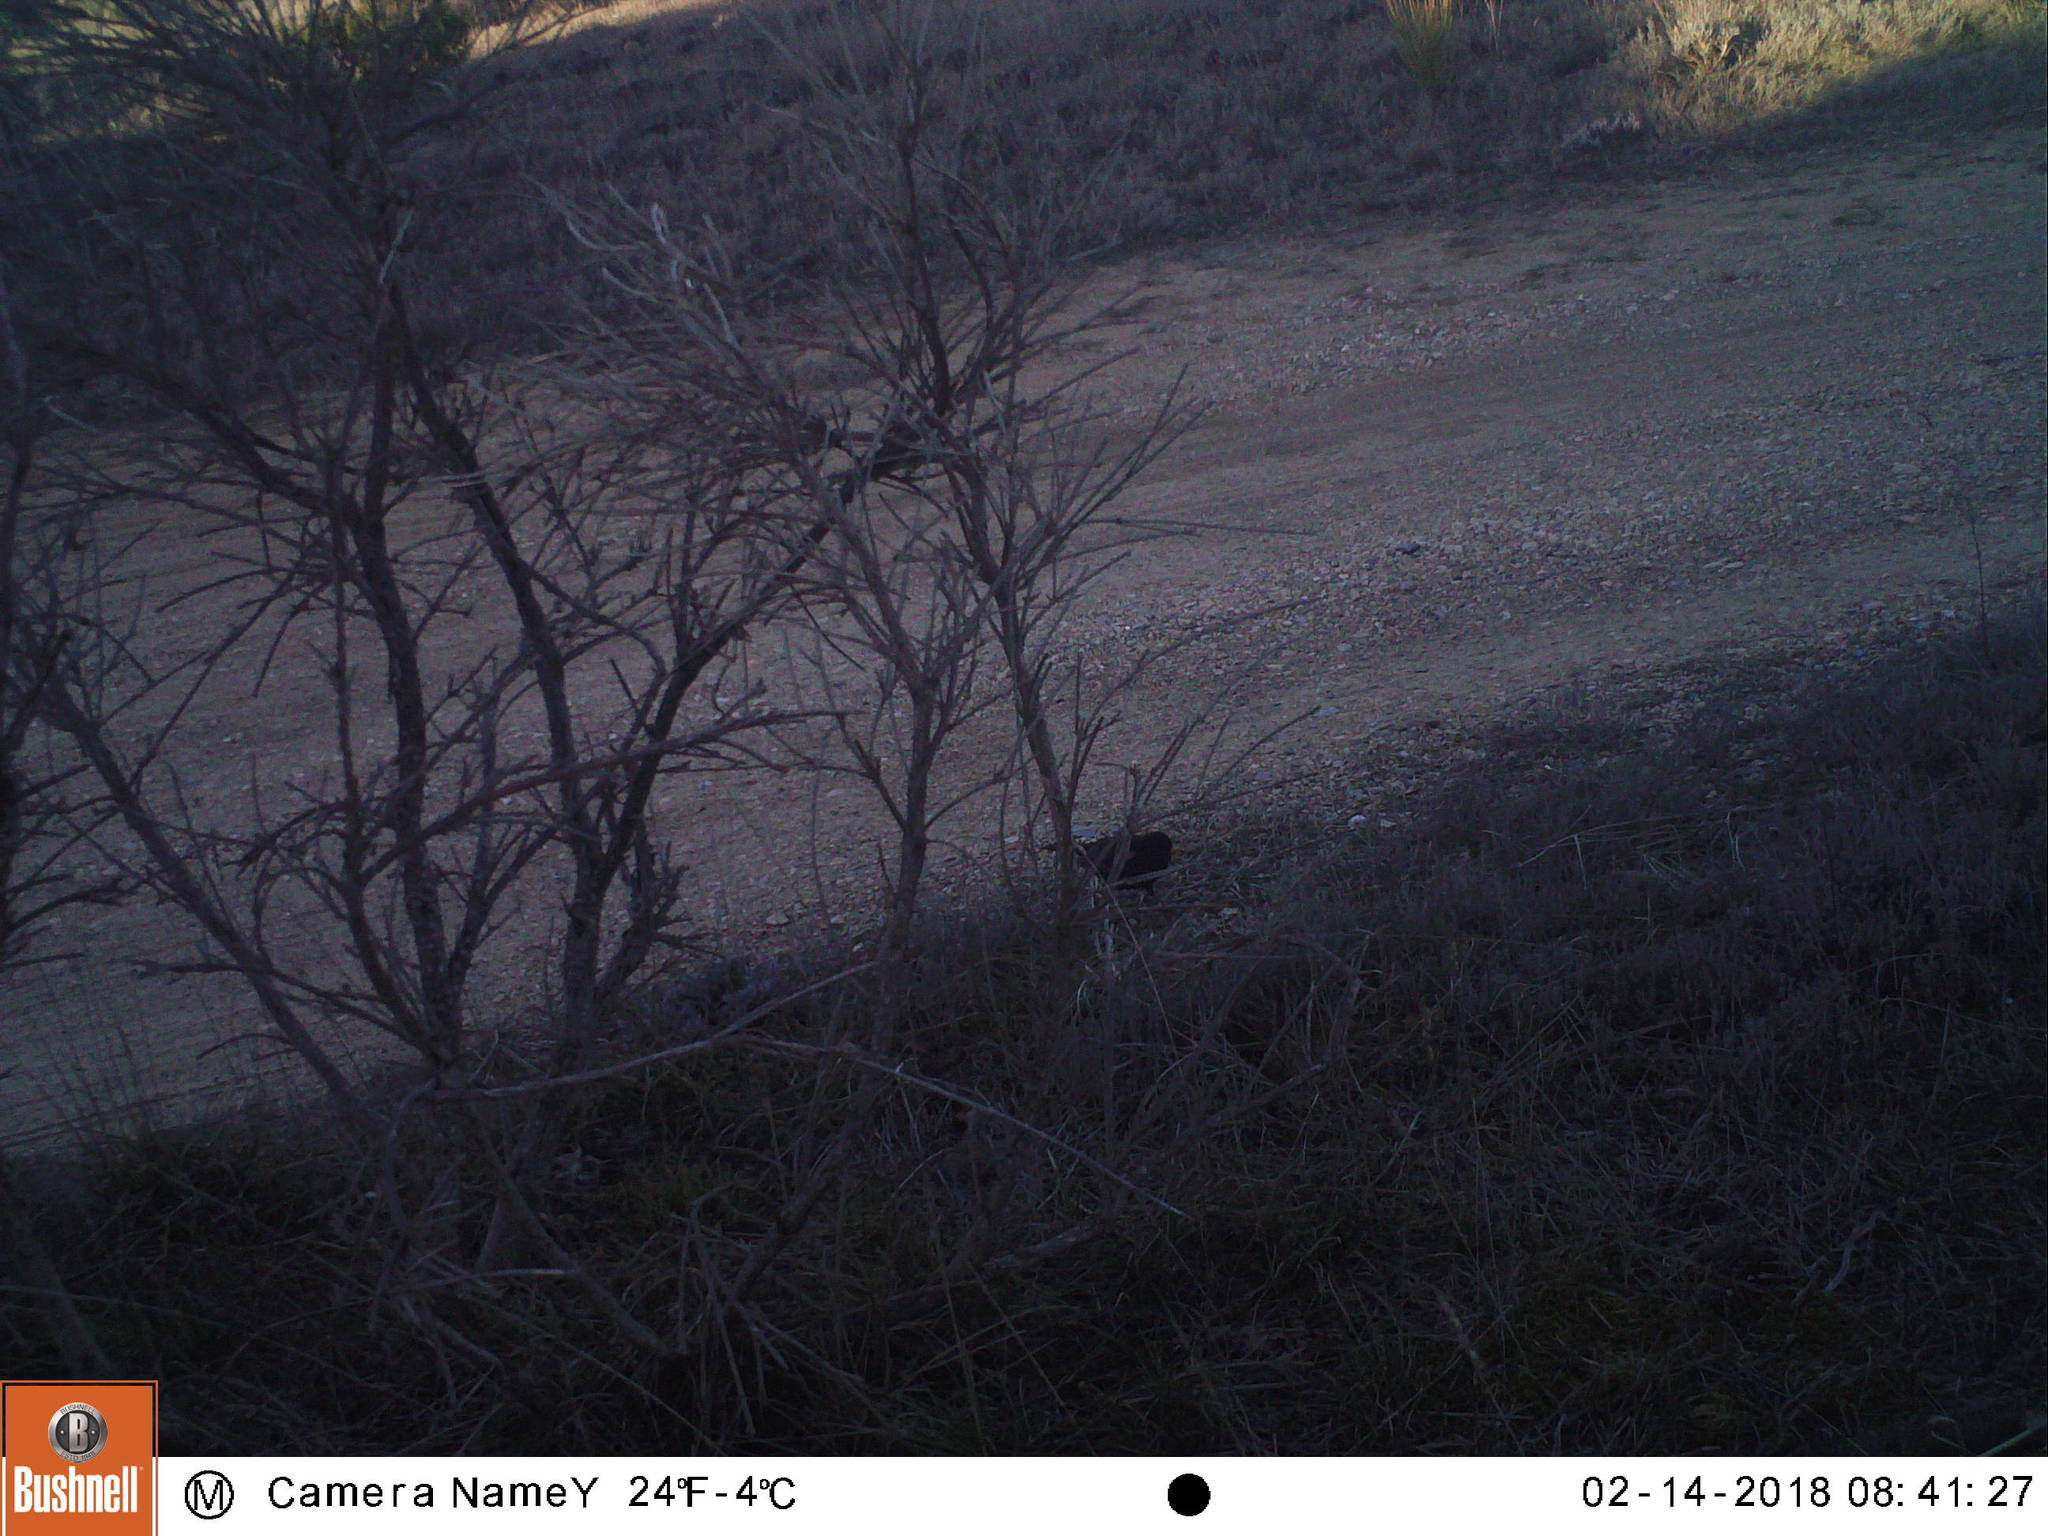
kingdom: Animalia
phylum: Chordata
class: Aves
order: Passeriformes
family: Turdidae
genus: Turdus
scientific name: Turdus merula
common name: Common blackbird
